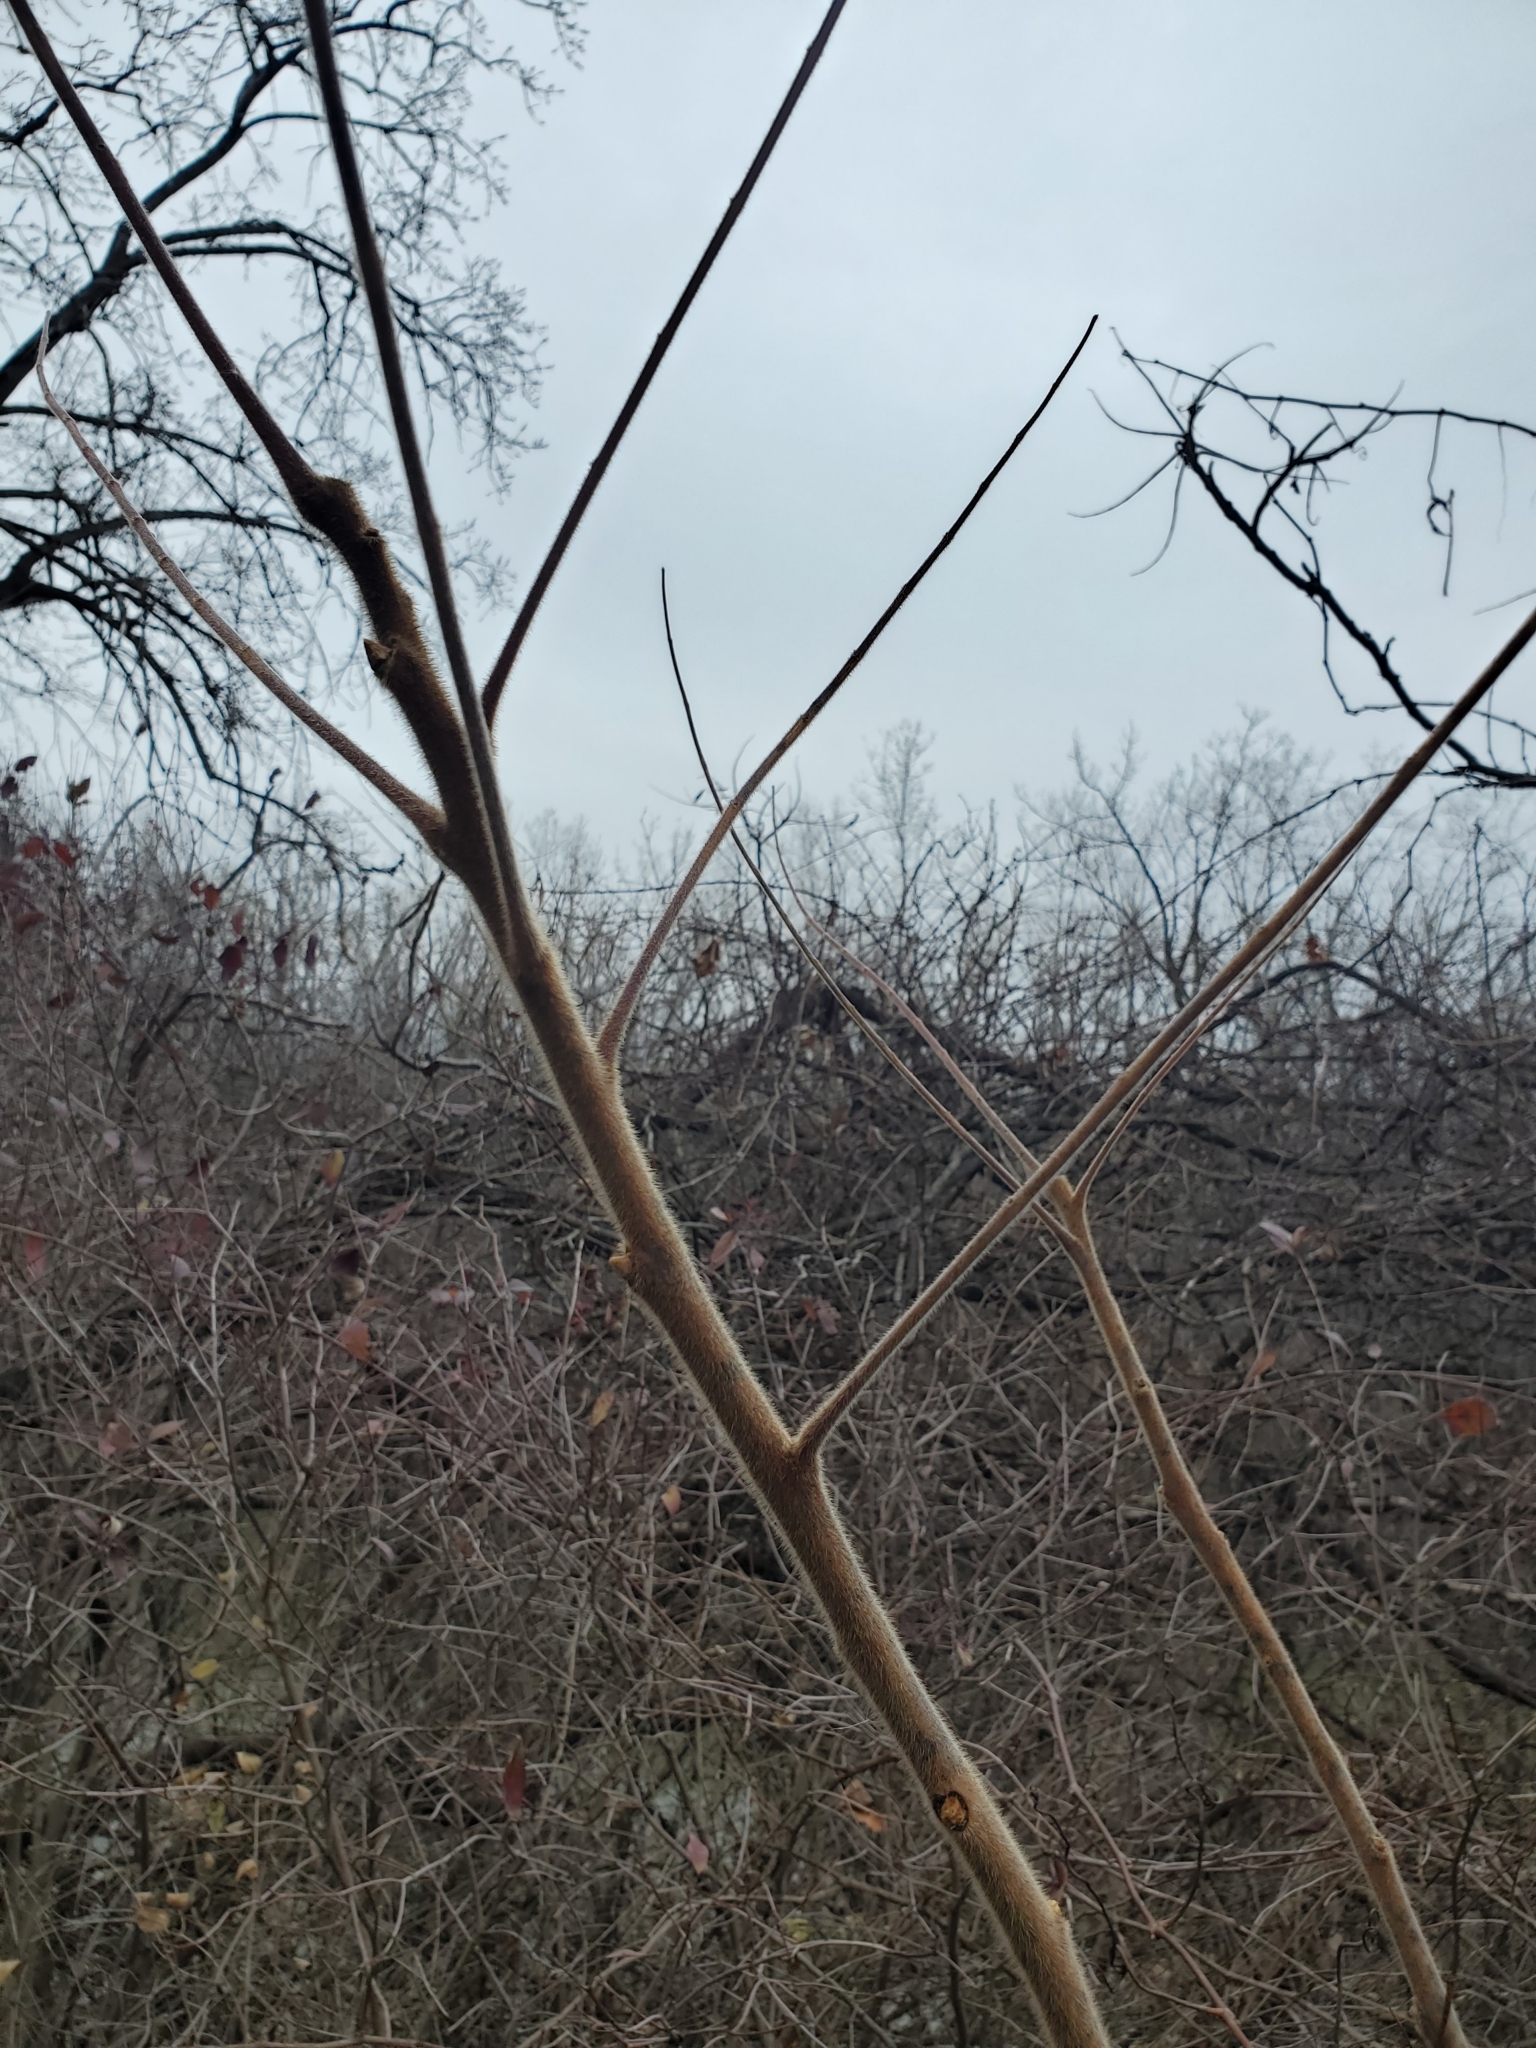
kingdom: Plantae
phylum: Tracheophyta
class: Magnoliopsida
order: Sapindales
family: Anacardiaceae
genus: Rhus
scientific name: Rhus typhina
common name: Staghorn sumac
